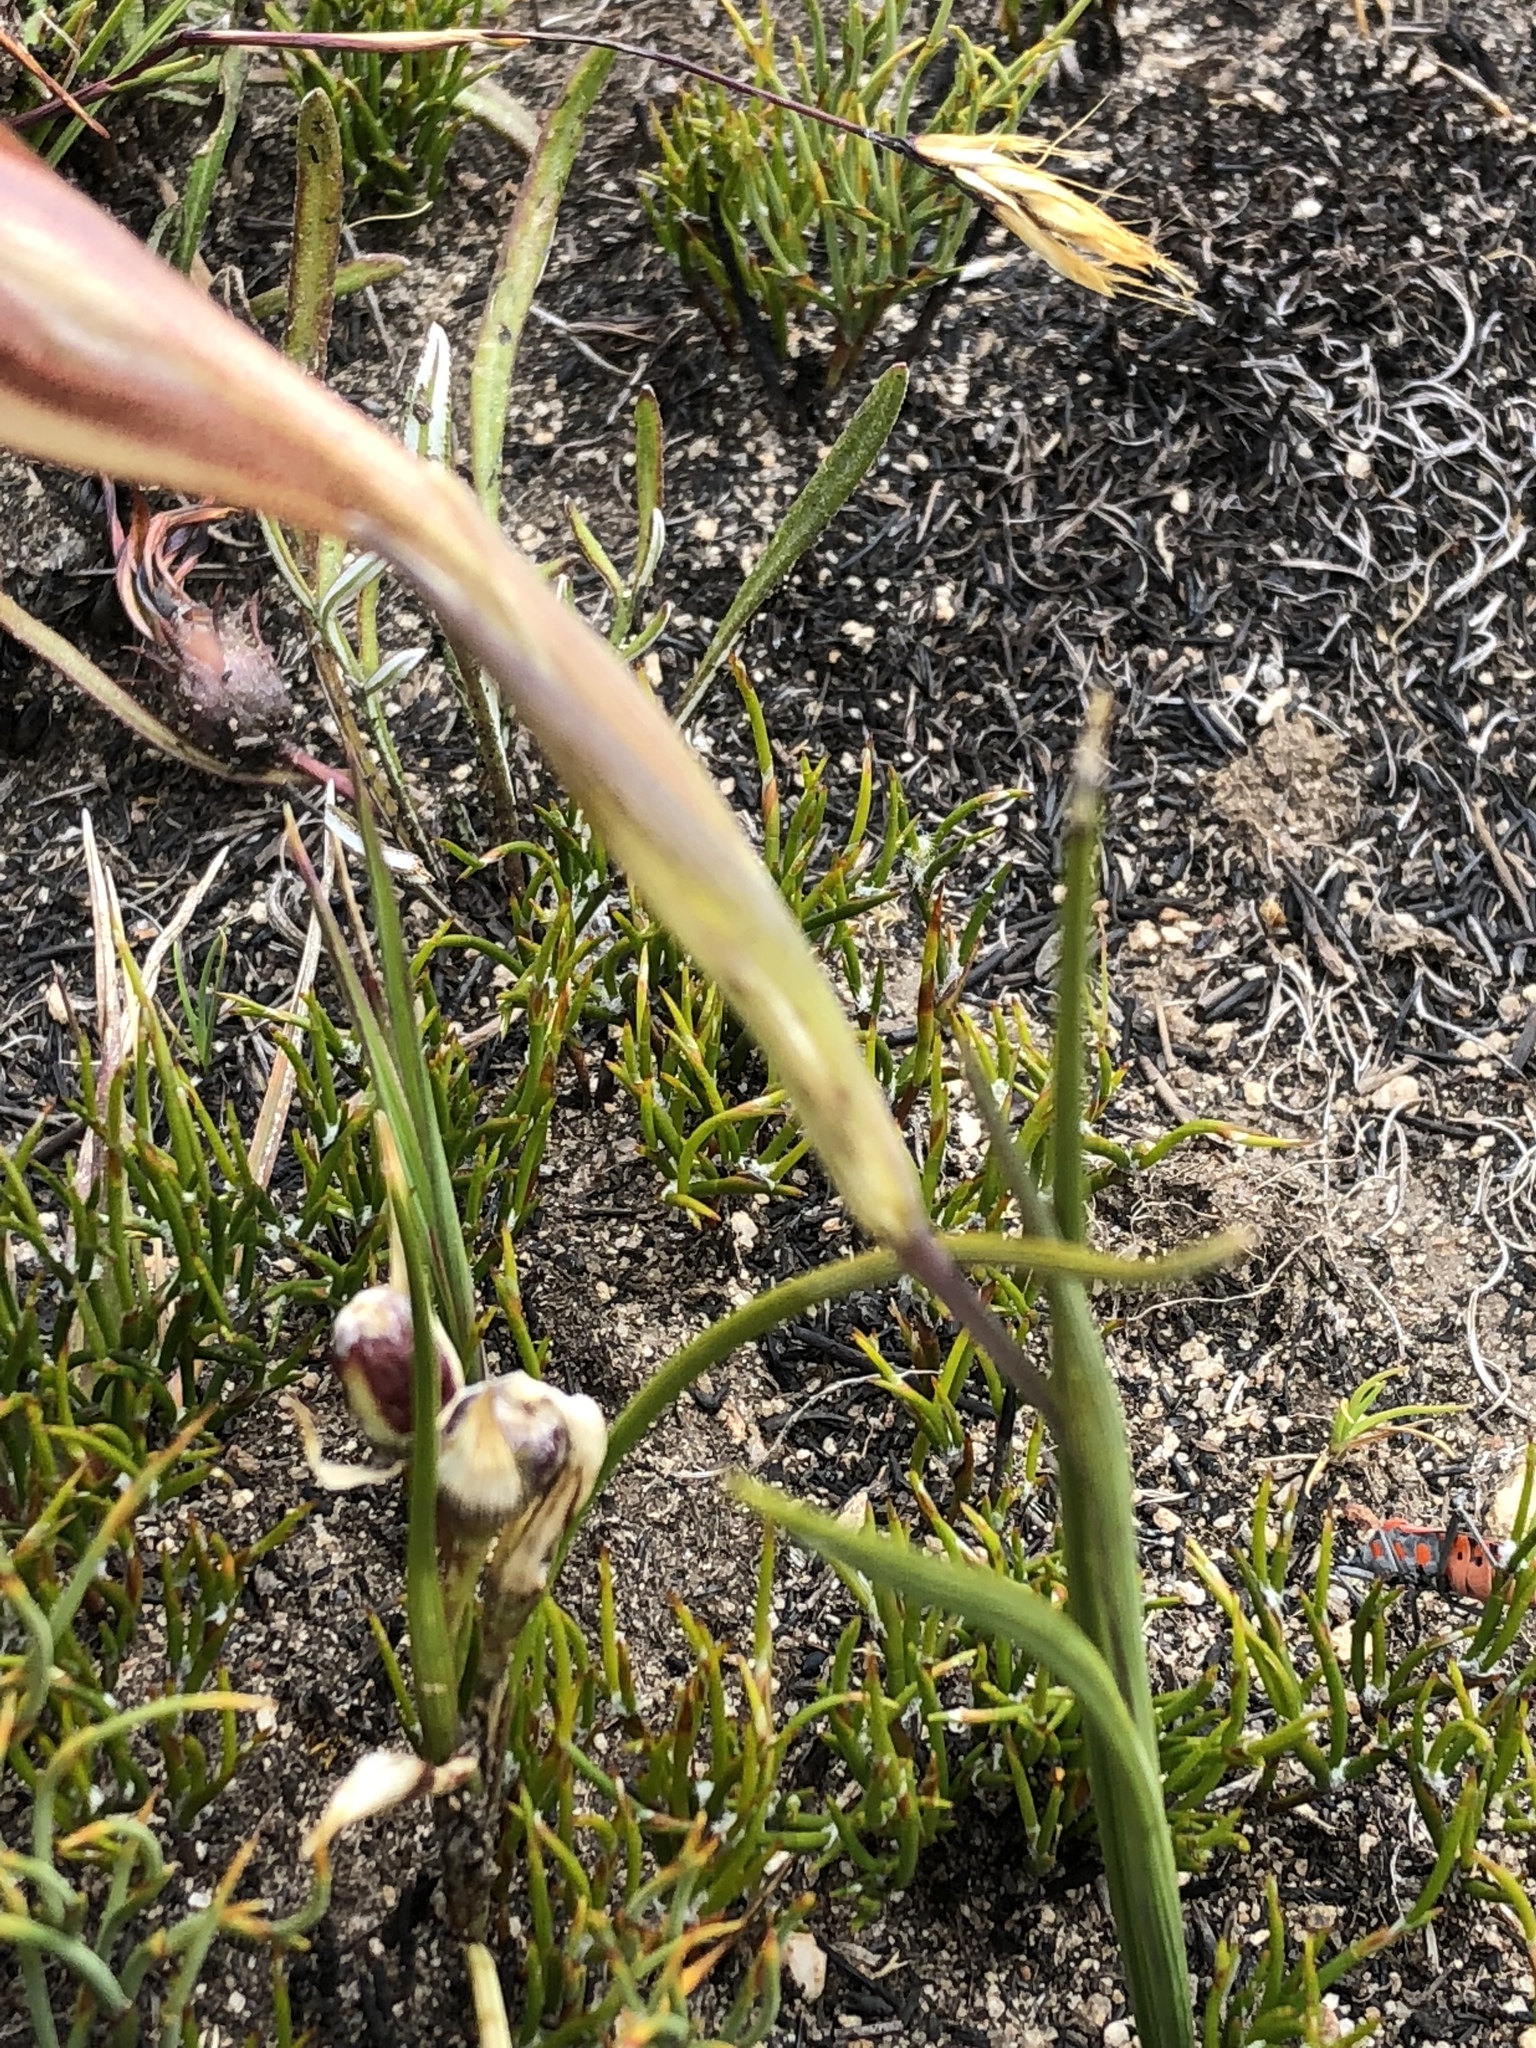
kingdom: Plantae
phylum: Tracheophyta
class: Liliopsida
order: Asparagales
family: Iridaceae
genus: Gladiolus
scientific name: Gladiolus liliaceus
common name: Large brown afrikaner
